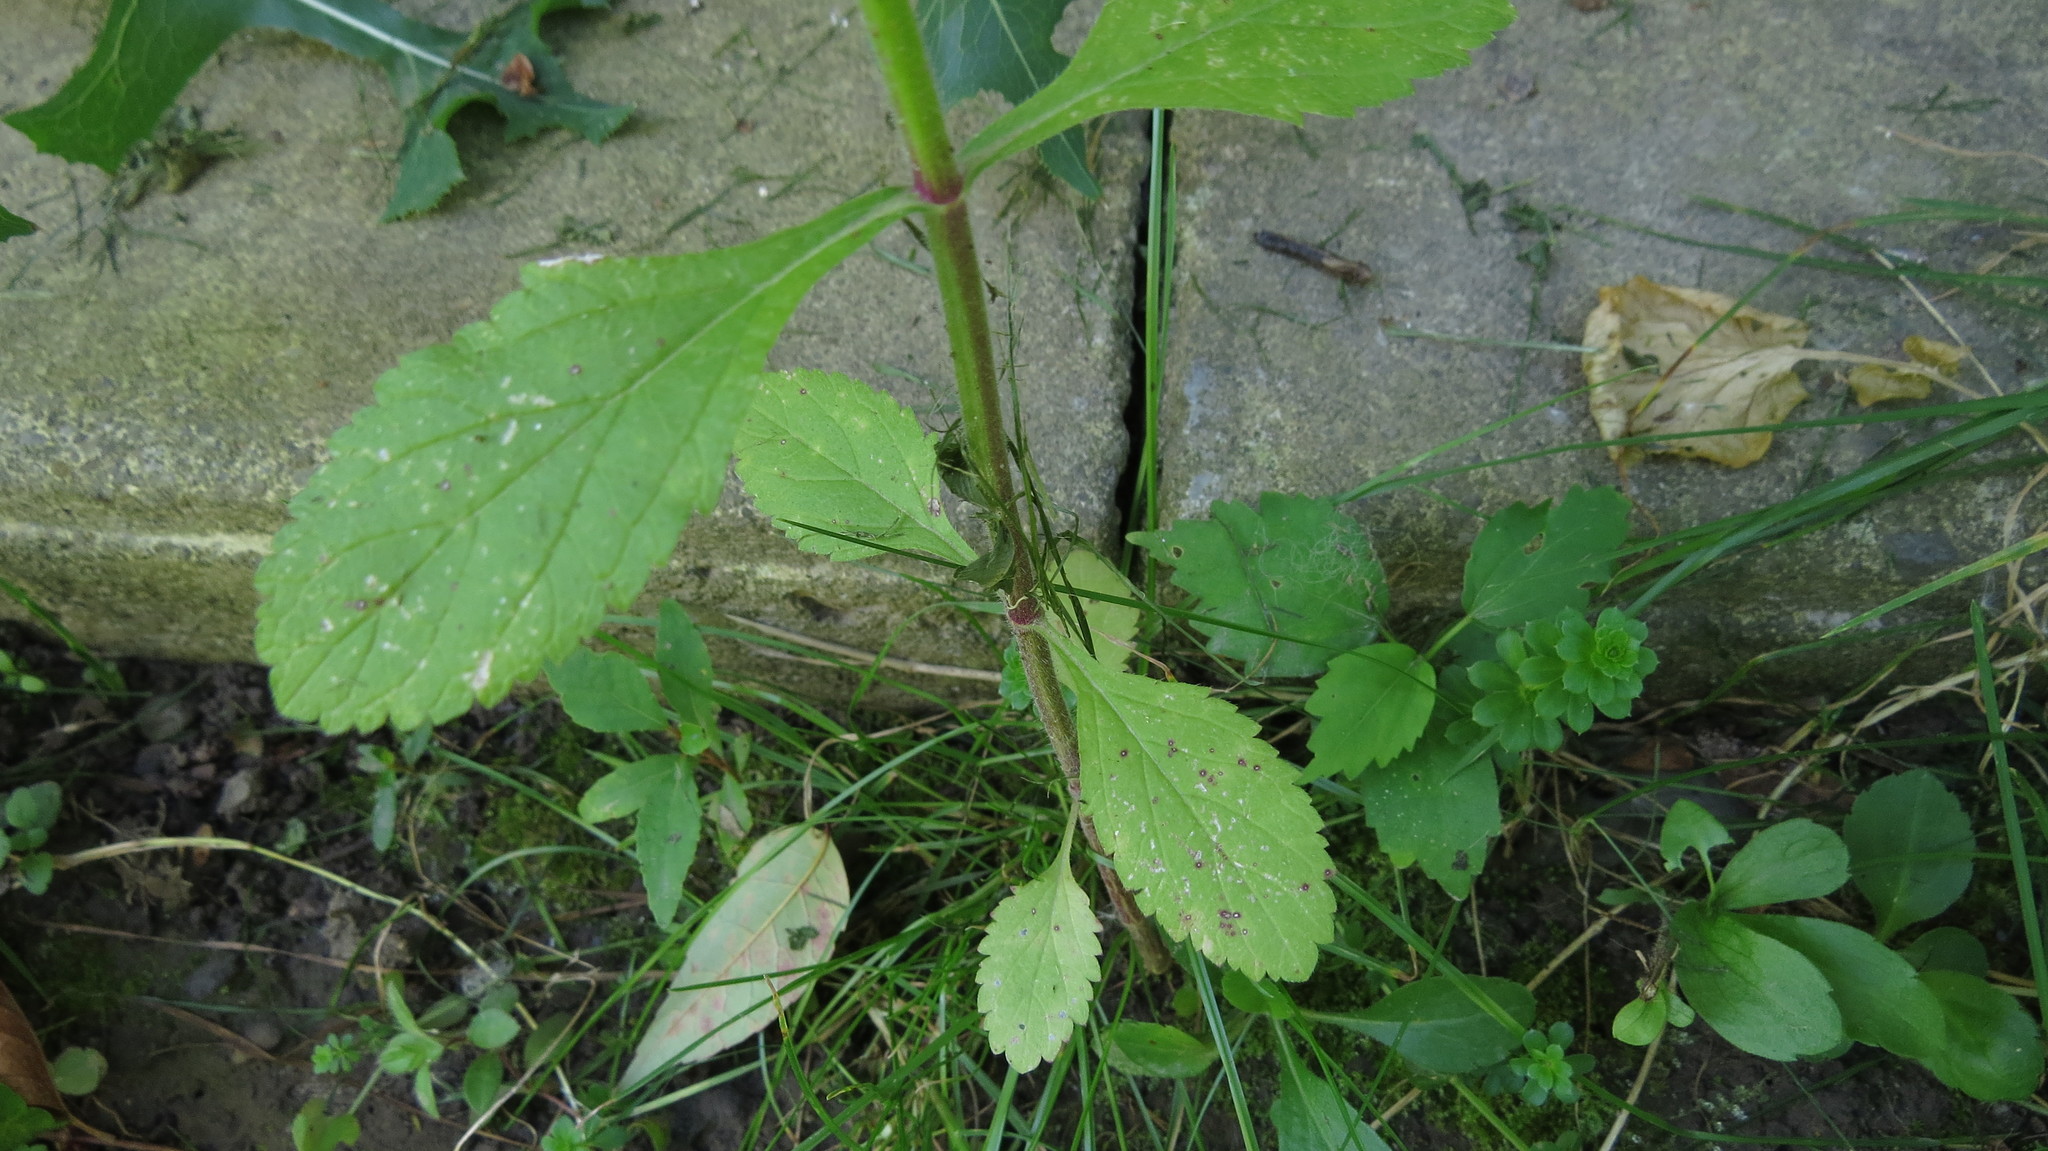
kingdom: Plantae
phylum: Tracheophyta
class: Magnoliopsida
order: Lamiales
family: Verbenaceae
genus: Verbena
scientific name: Verbena bonariensis
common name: Purpletop vervain
